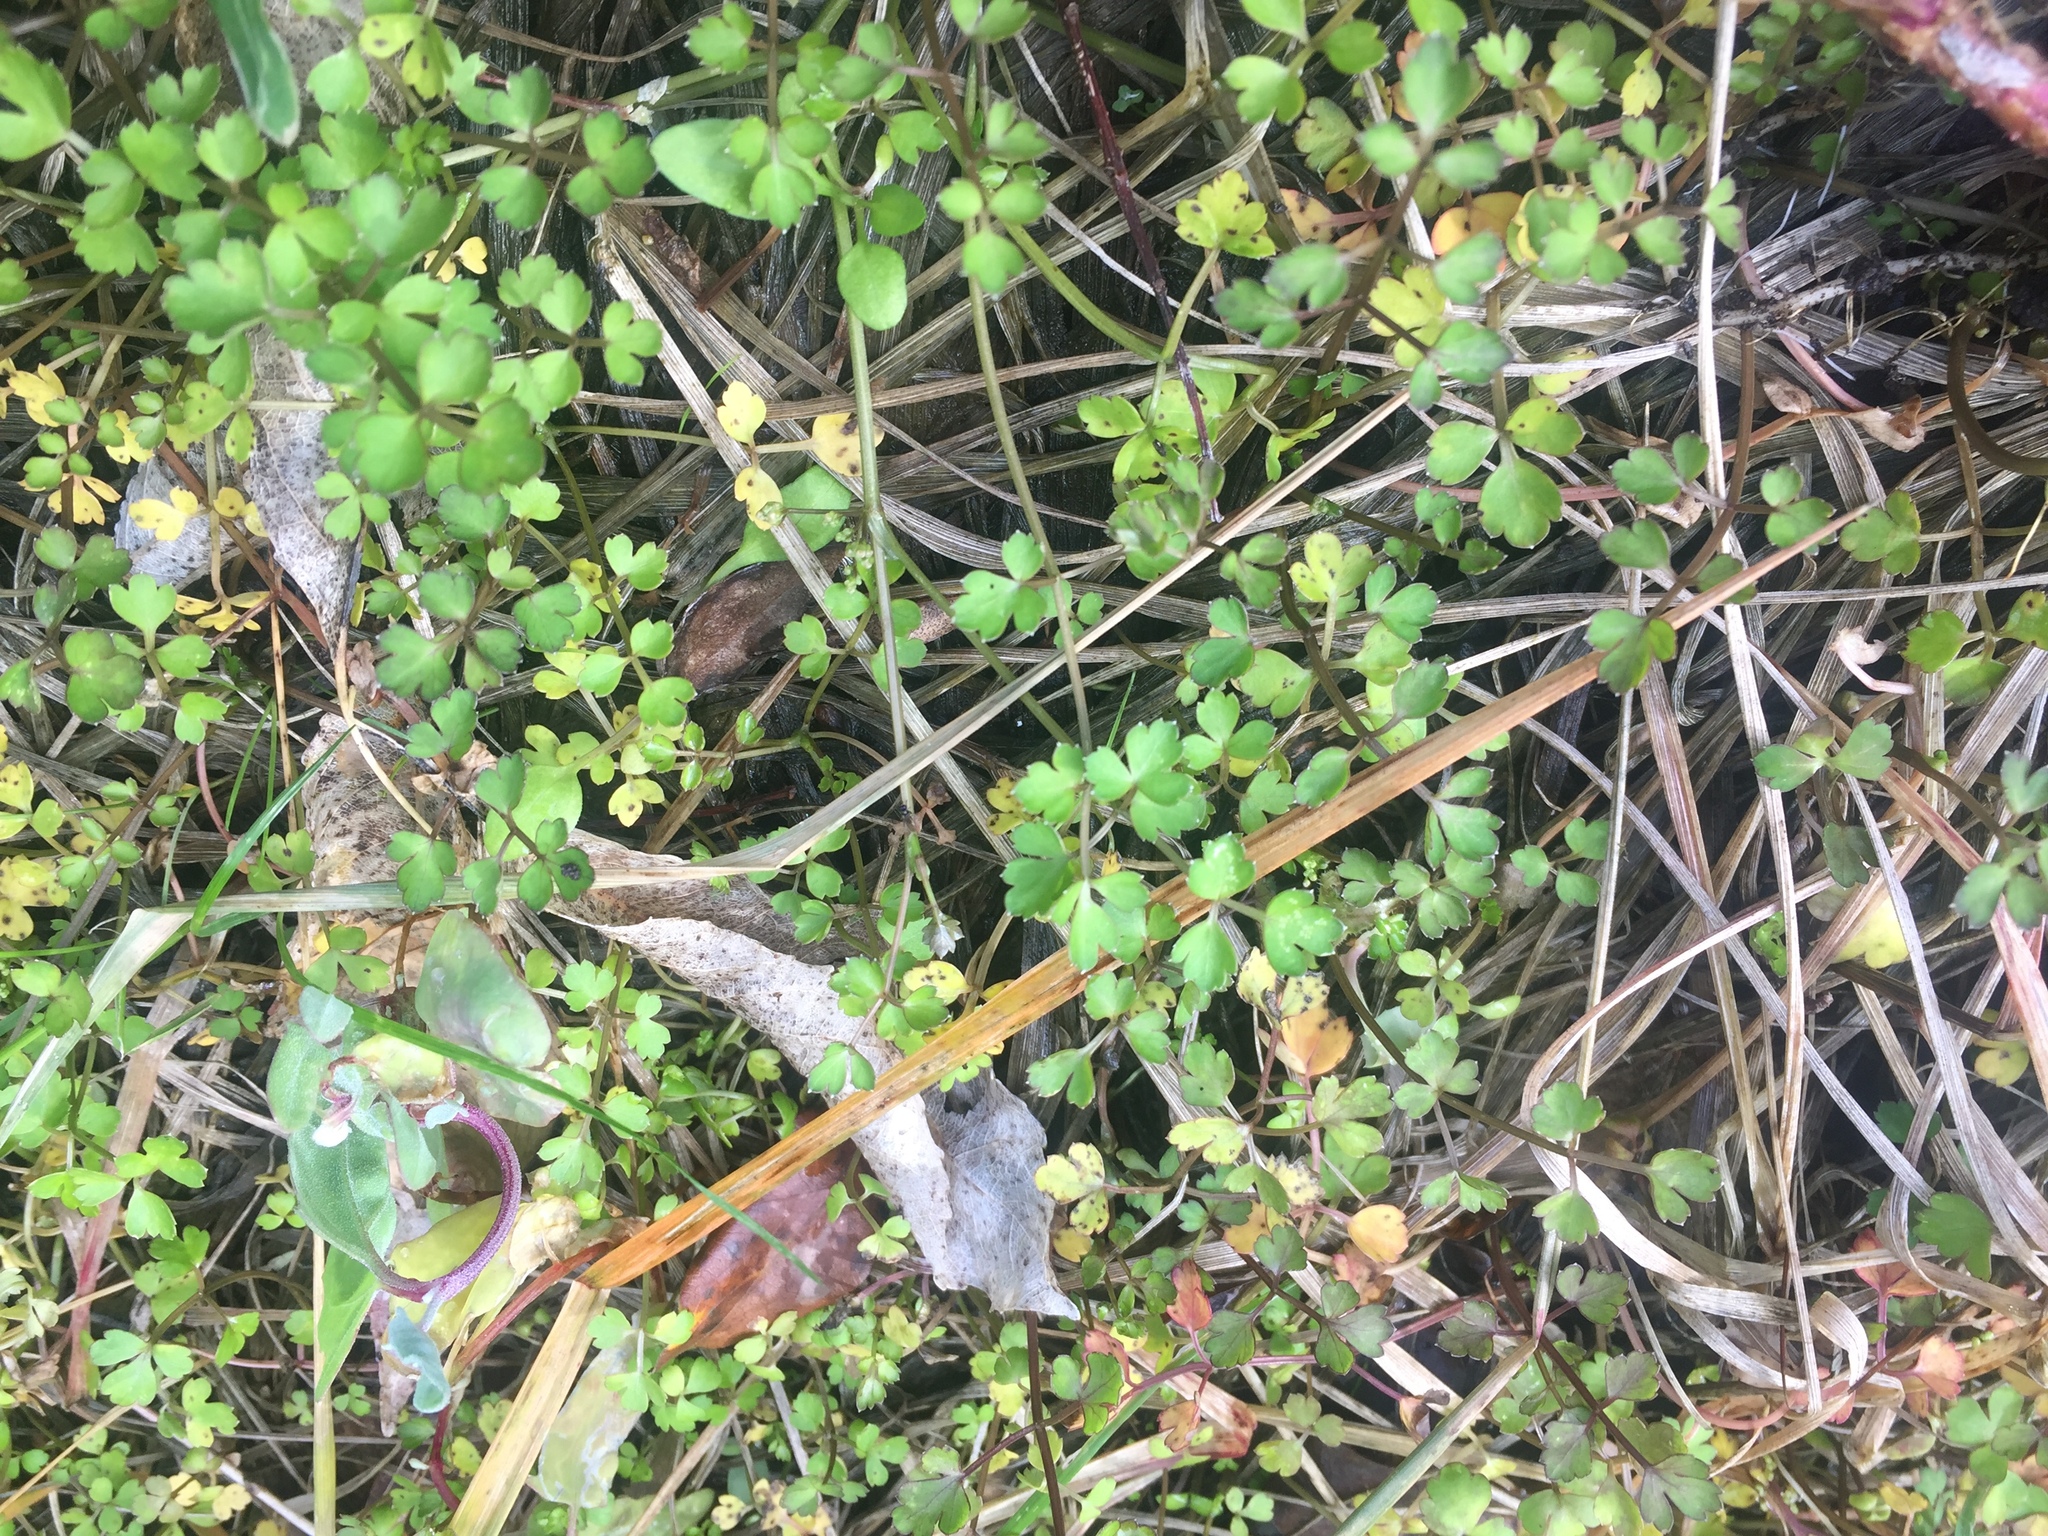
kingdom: Plantae
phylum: Tracheophyta
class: Magnoliopsida
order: Apiales
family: Apiaceae
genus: Apium
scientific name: Apium prostratum
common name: Prostrate marshwort
